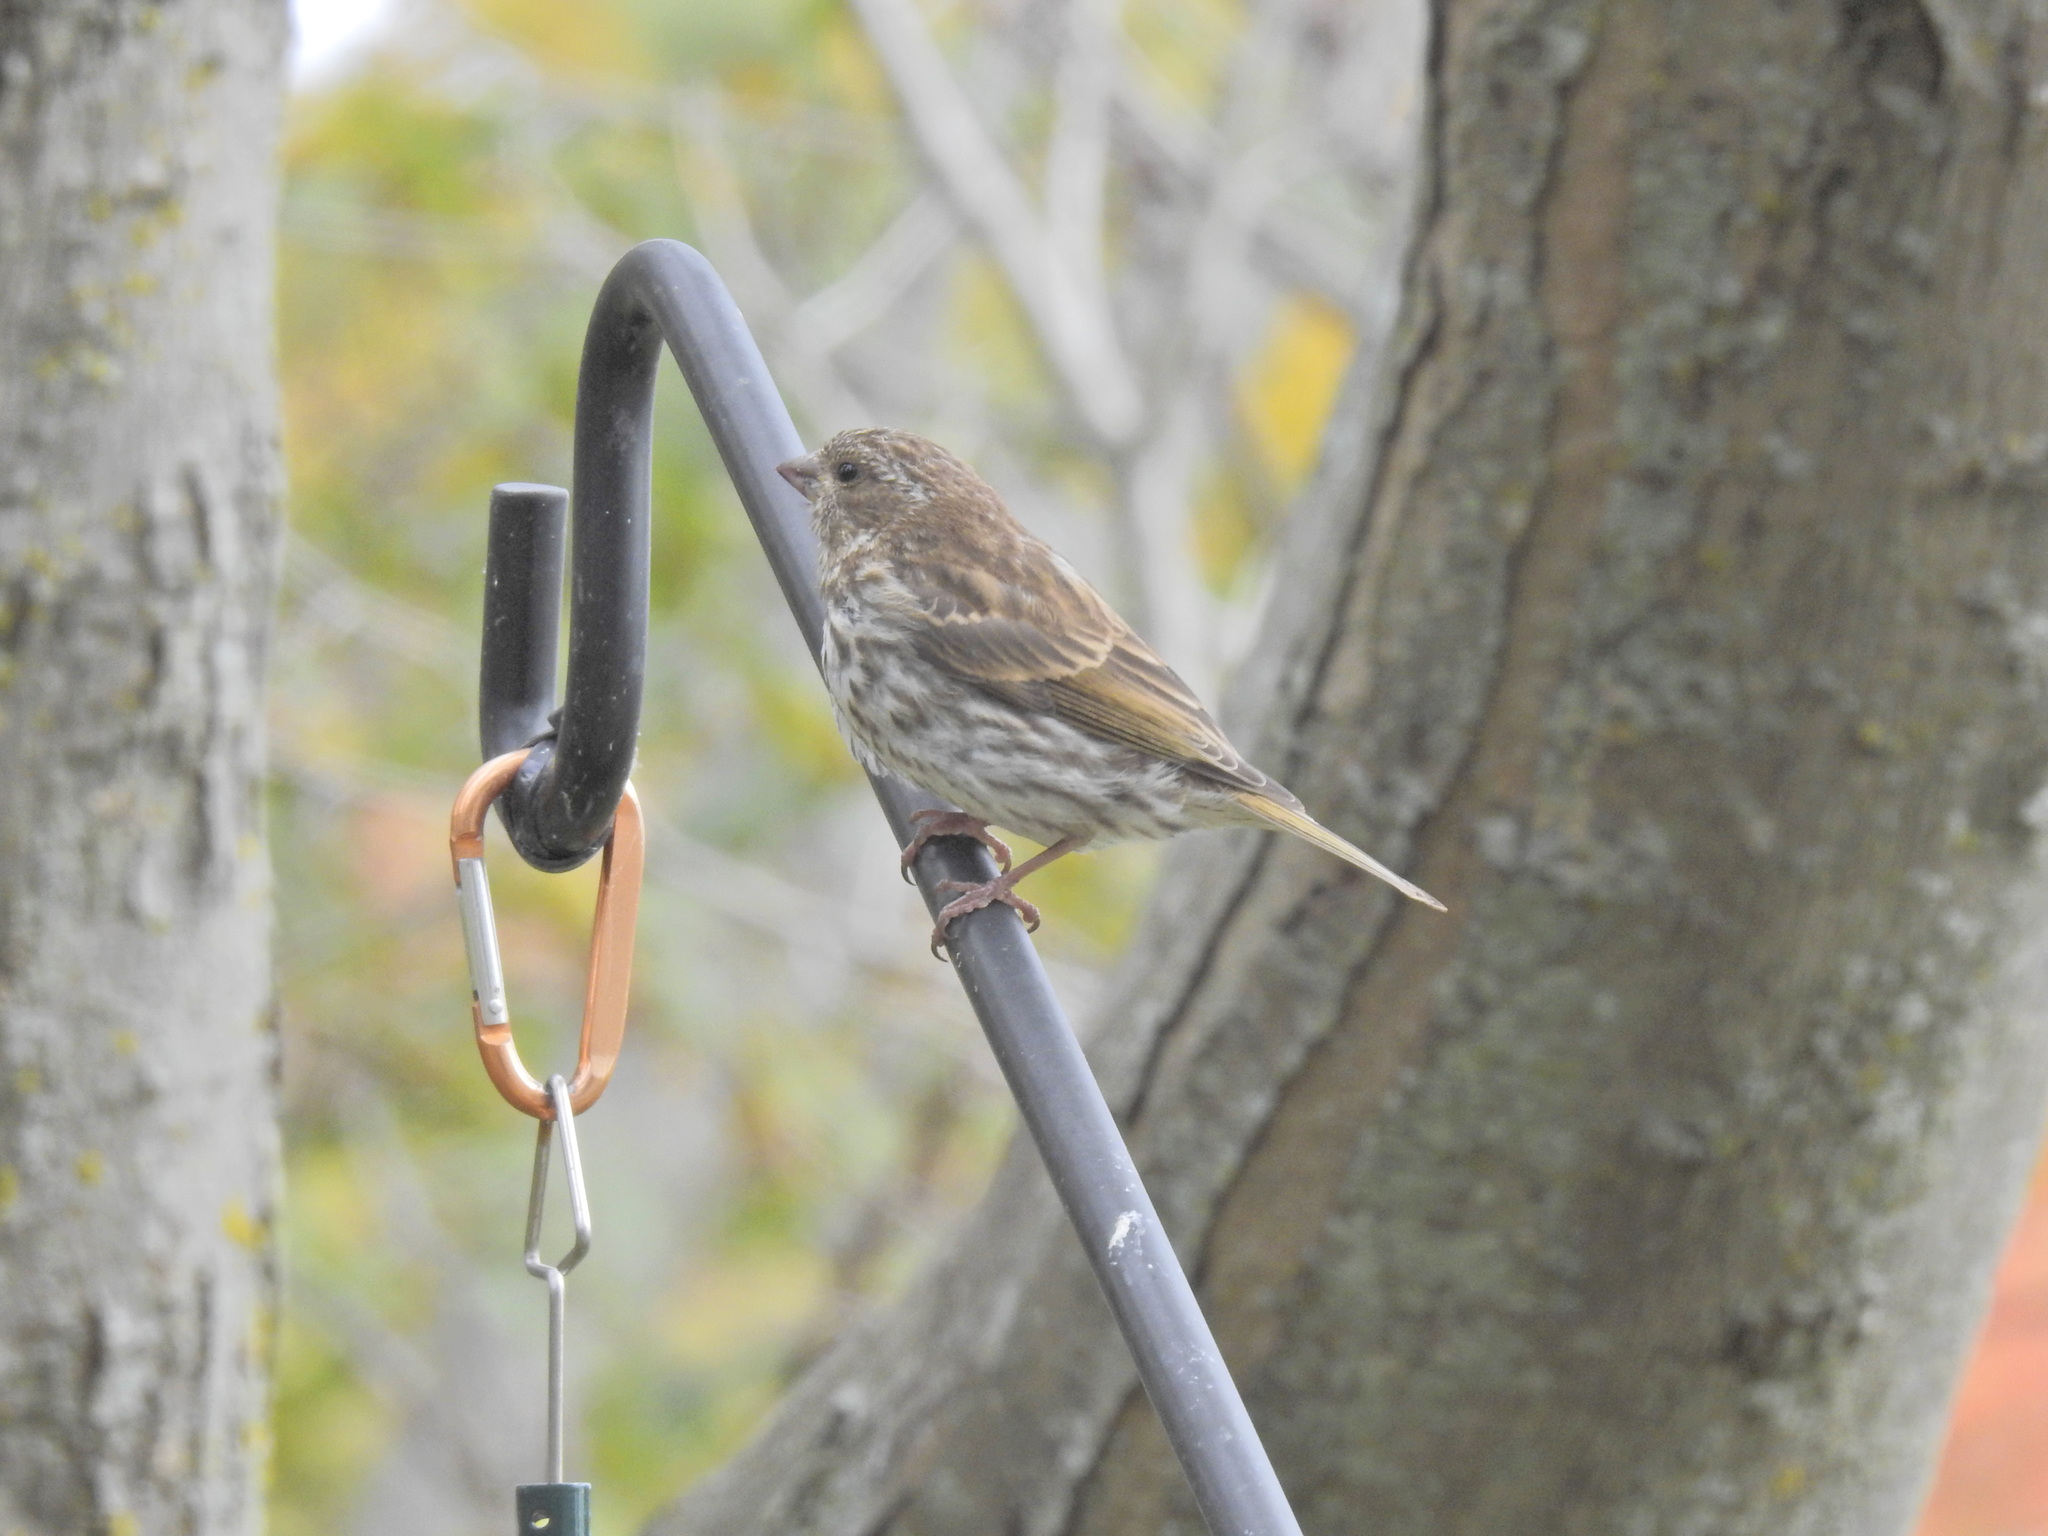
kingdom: Animalia
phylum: Chordata
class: Aves
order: Passeriformes
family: Fringillidae
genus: Haemorhous
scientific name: Haemorhous purpureus
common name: Purple finch
